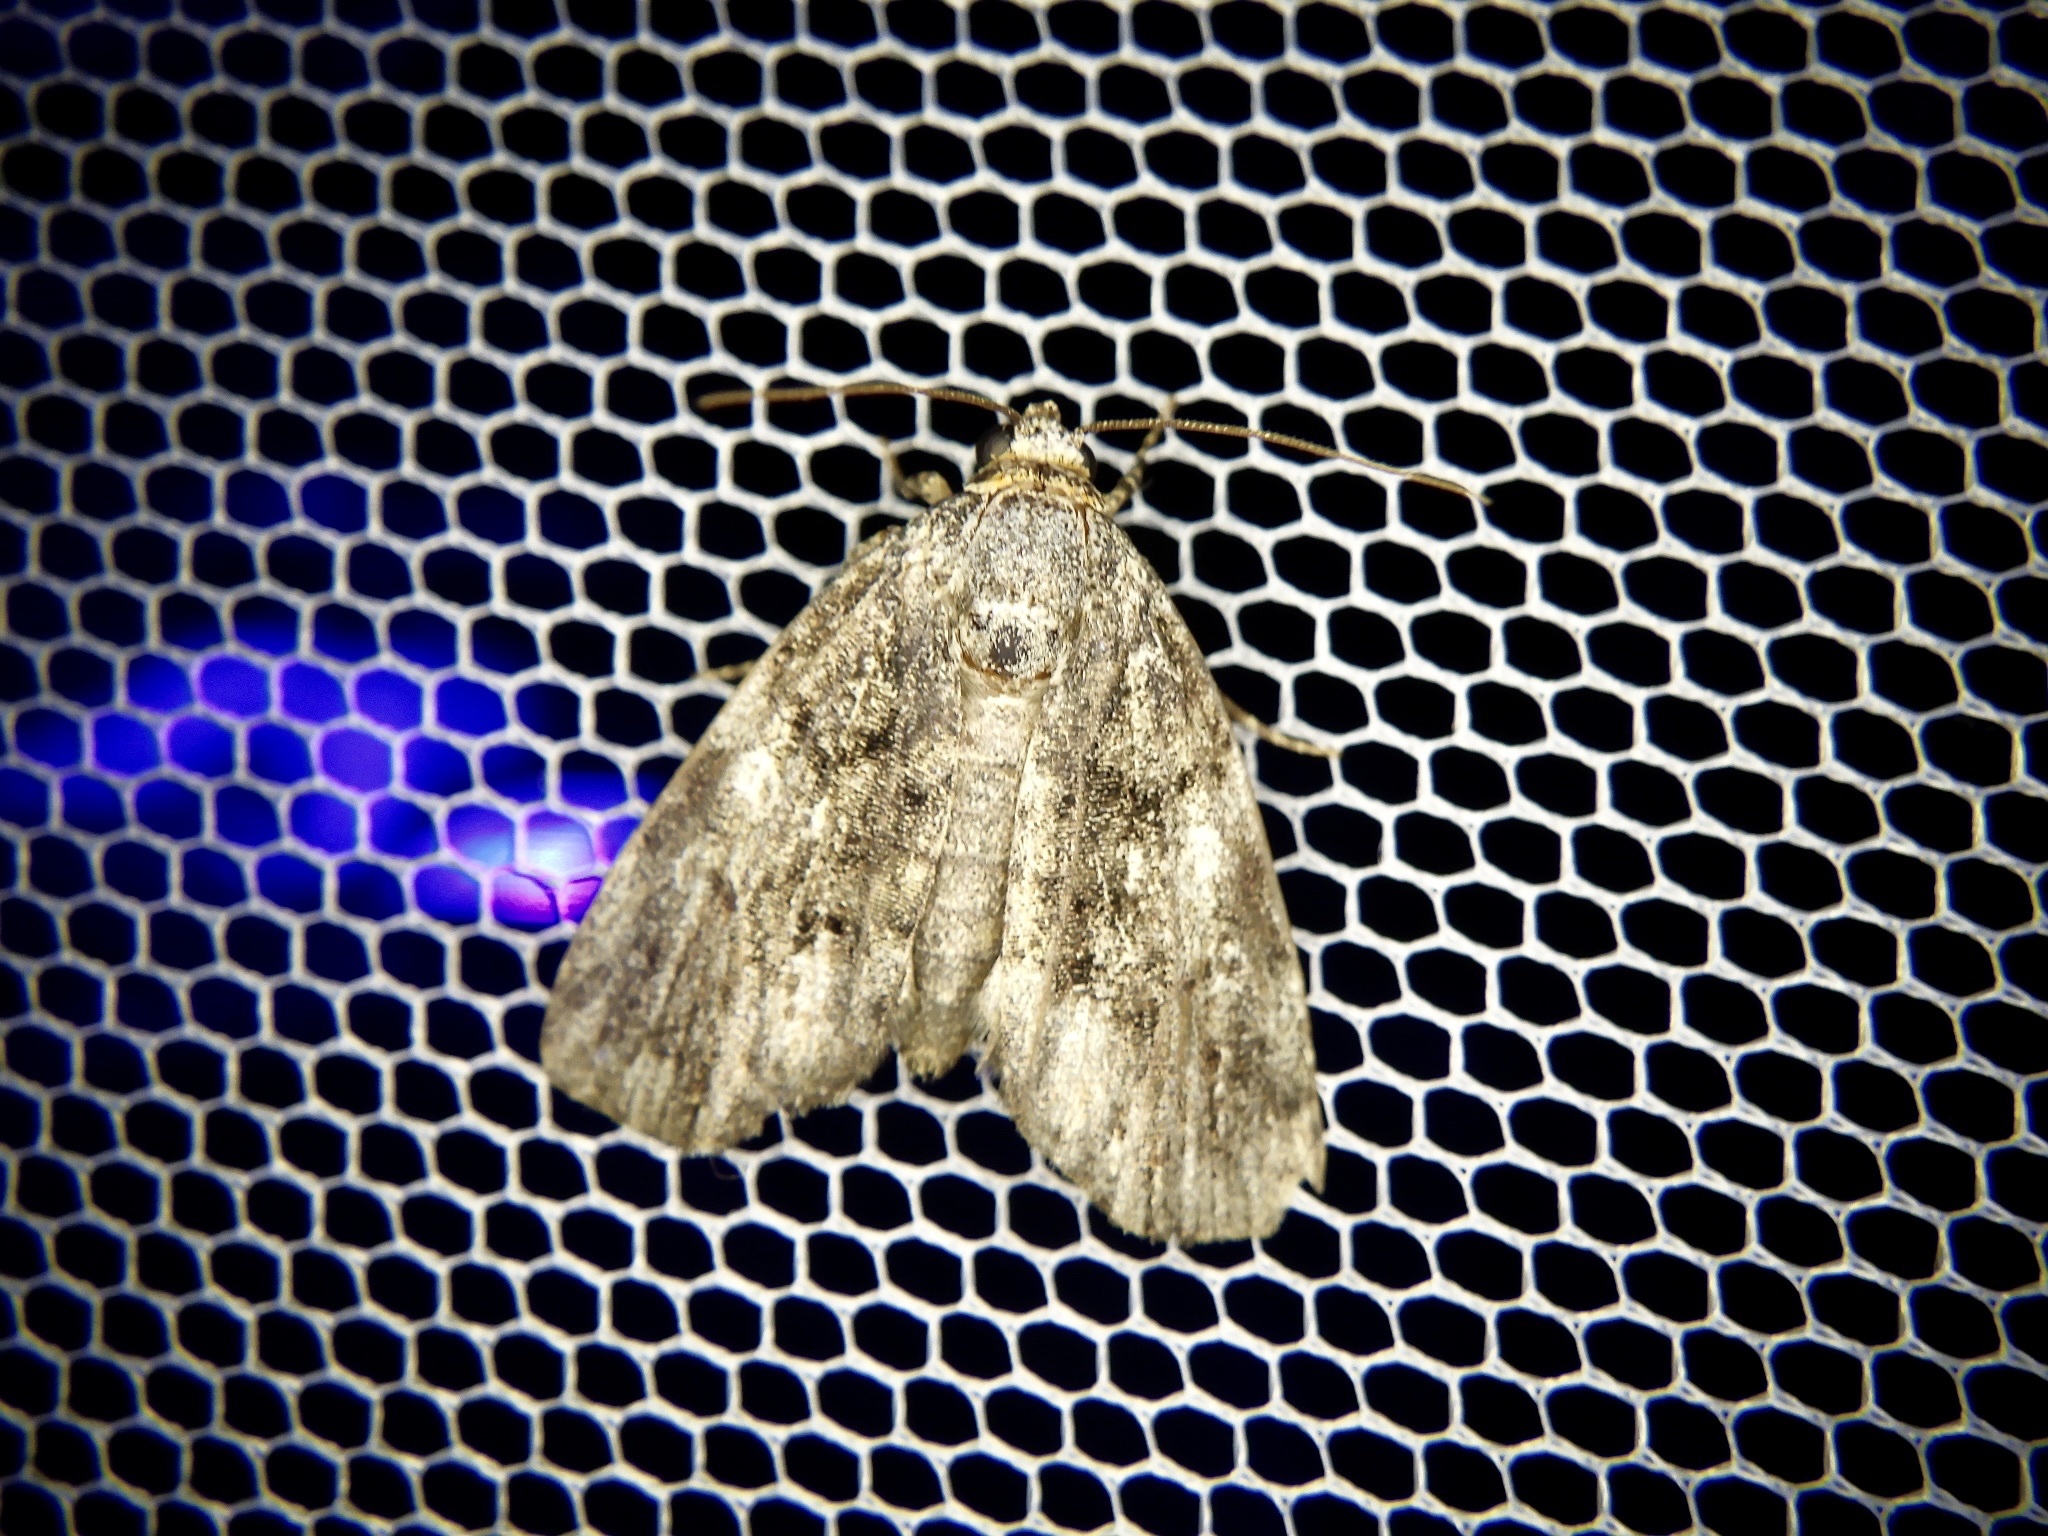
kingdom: Animalia
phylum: Arthropoda
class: Insecta
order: Lepidoptera
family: Noctuidae
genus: Gerbathodes
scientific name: Gerbathodes lichenodes
